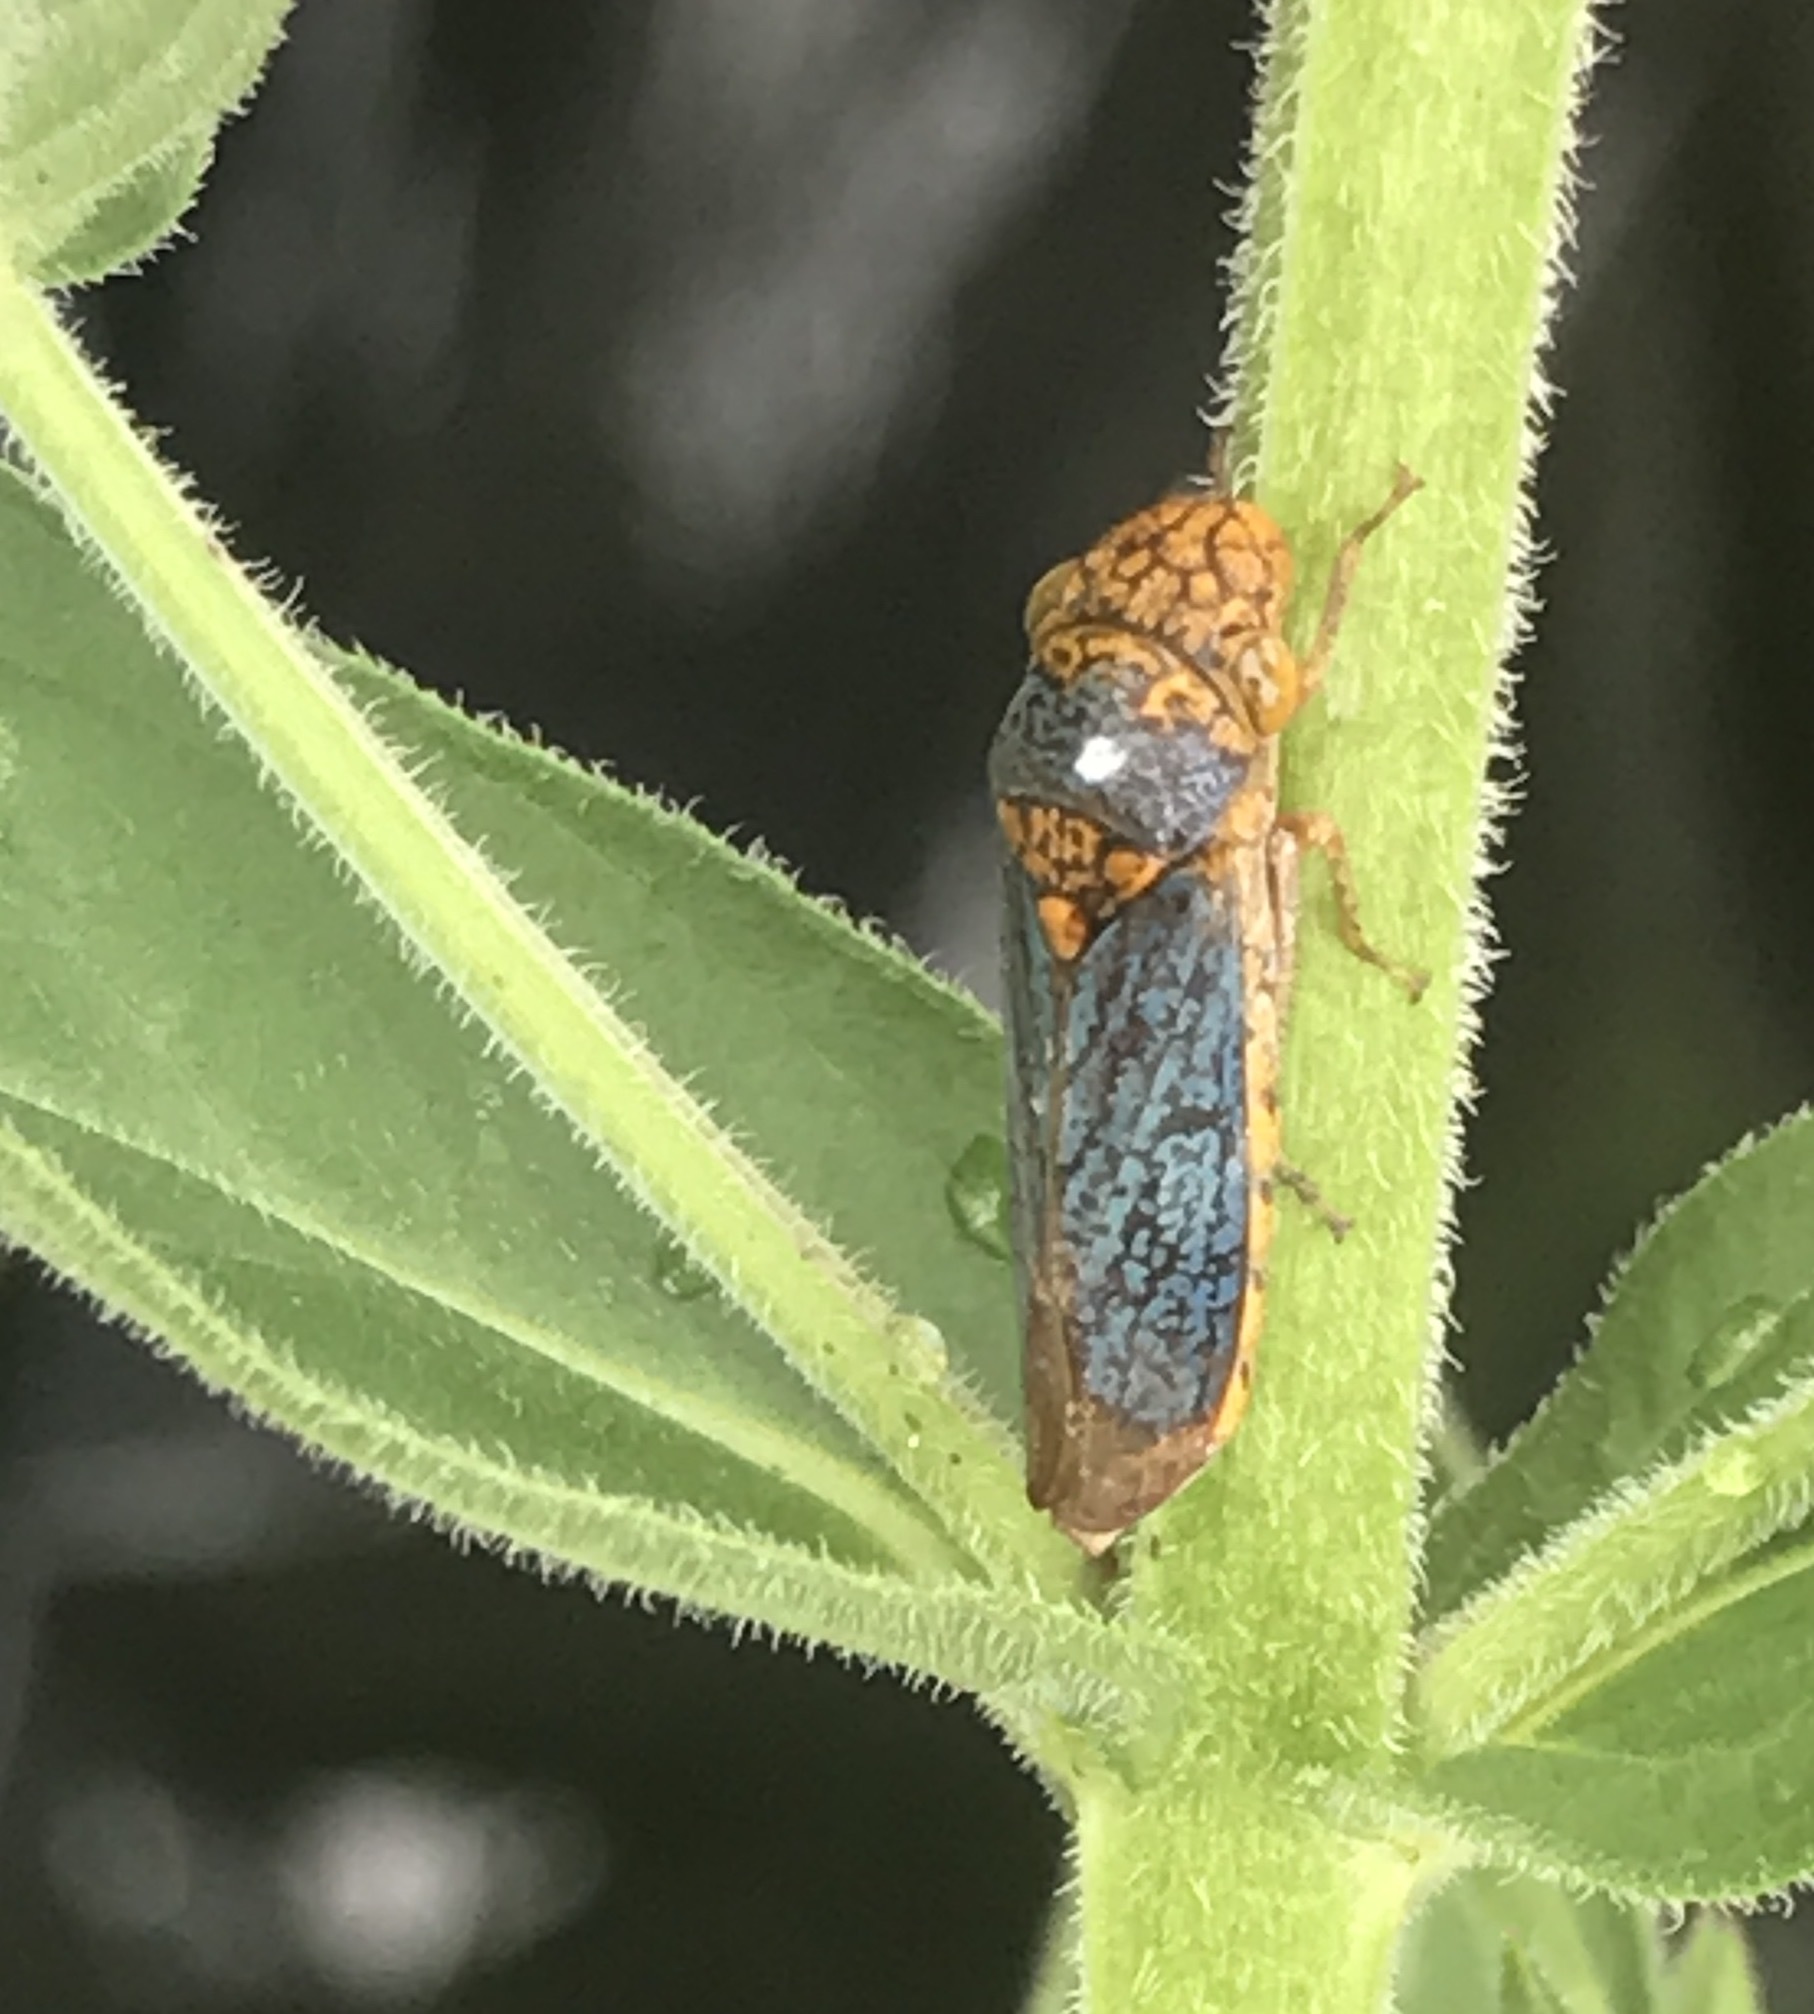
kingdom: Animalia
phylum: Arthropoda
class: Insecta
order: Hemiptera
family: Cicadellidae
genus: Oncometopia
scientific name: Oncometopia orbona
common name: Broad-headed sharpshooter
